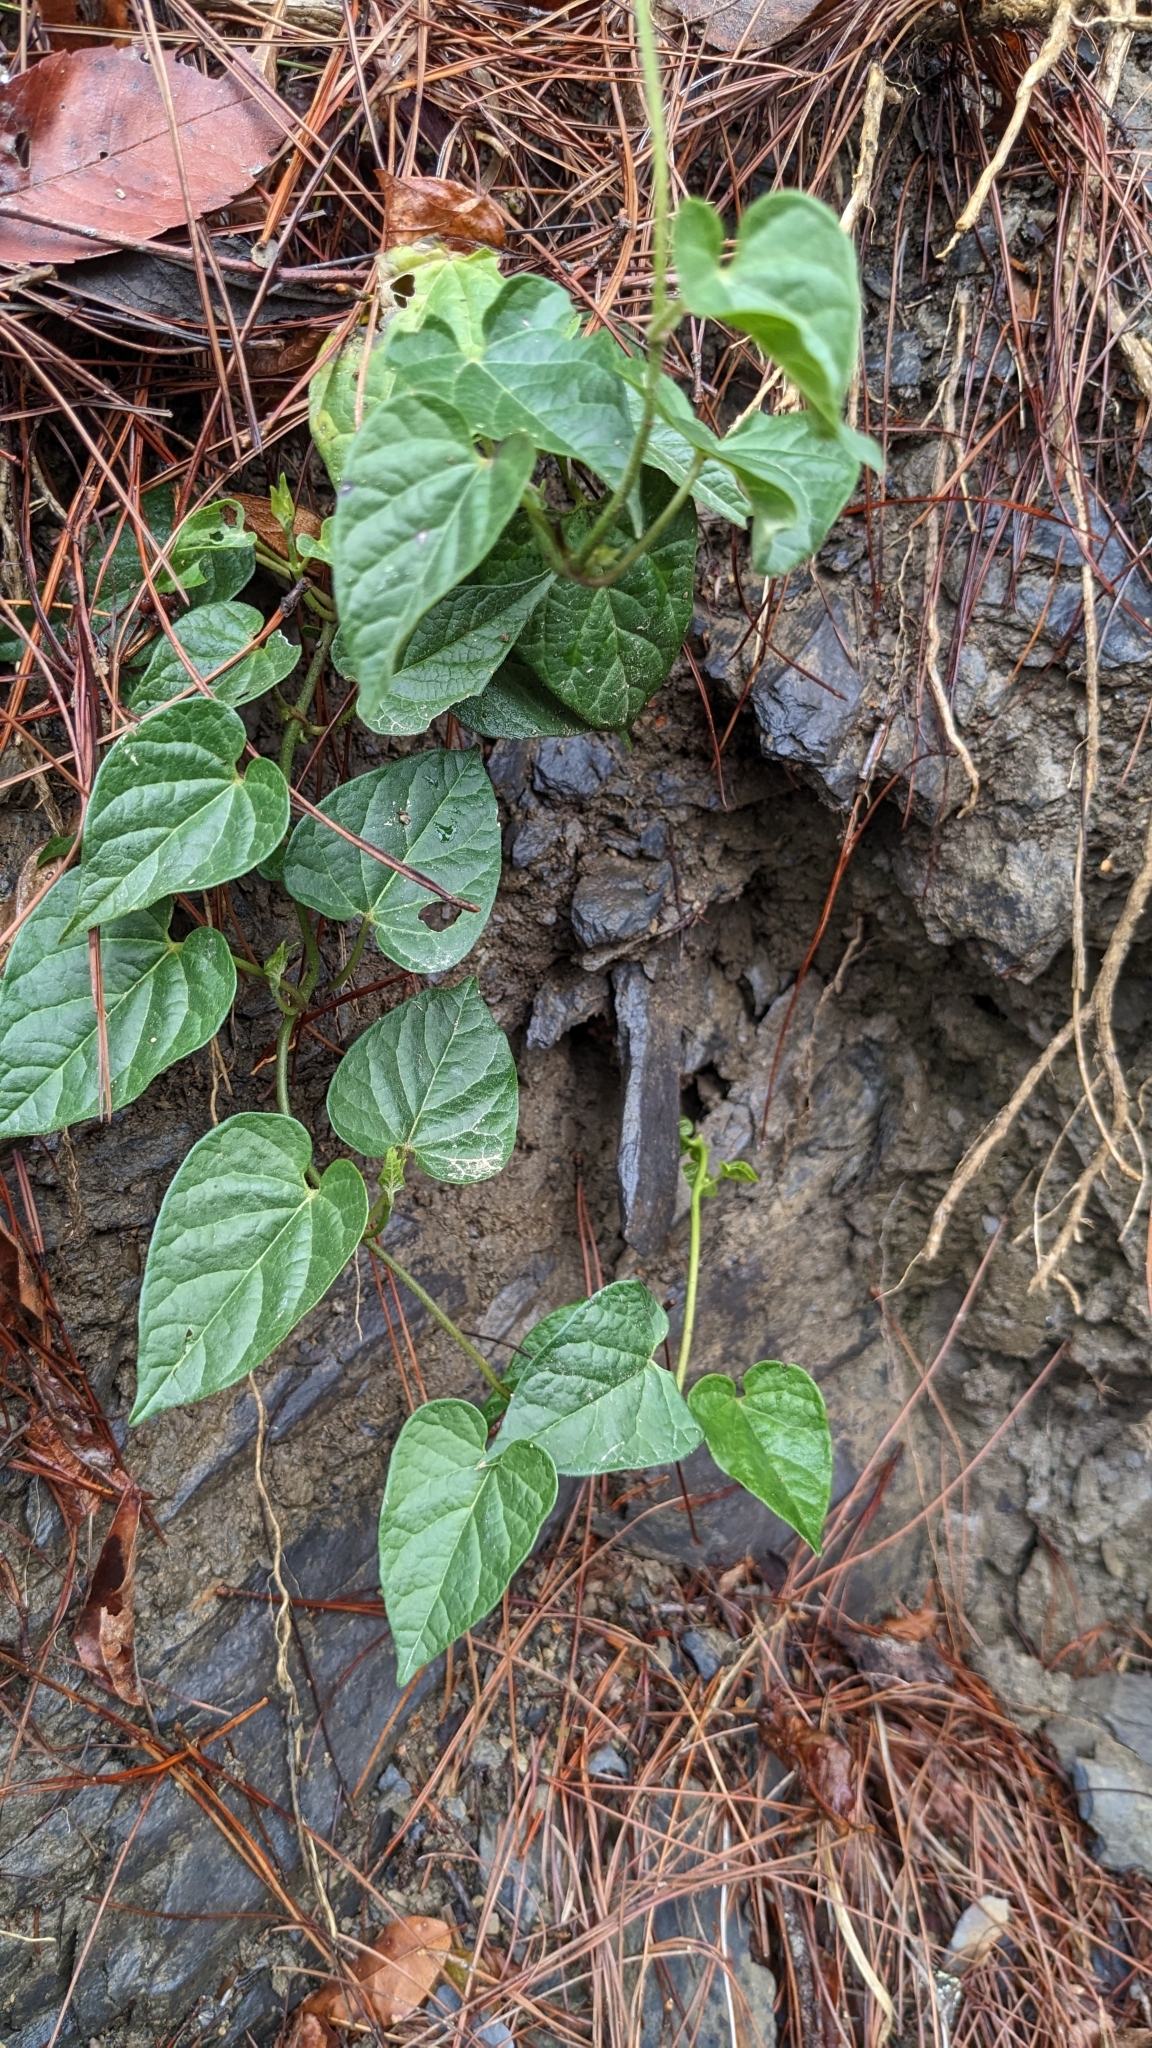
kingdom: Plantae
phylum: Tracheophyta
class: Magnoliopsida
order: Gentianales
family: Apocynaceae
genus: Cynanchum
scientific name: Cynanchum boudieri
